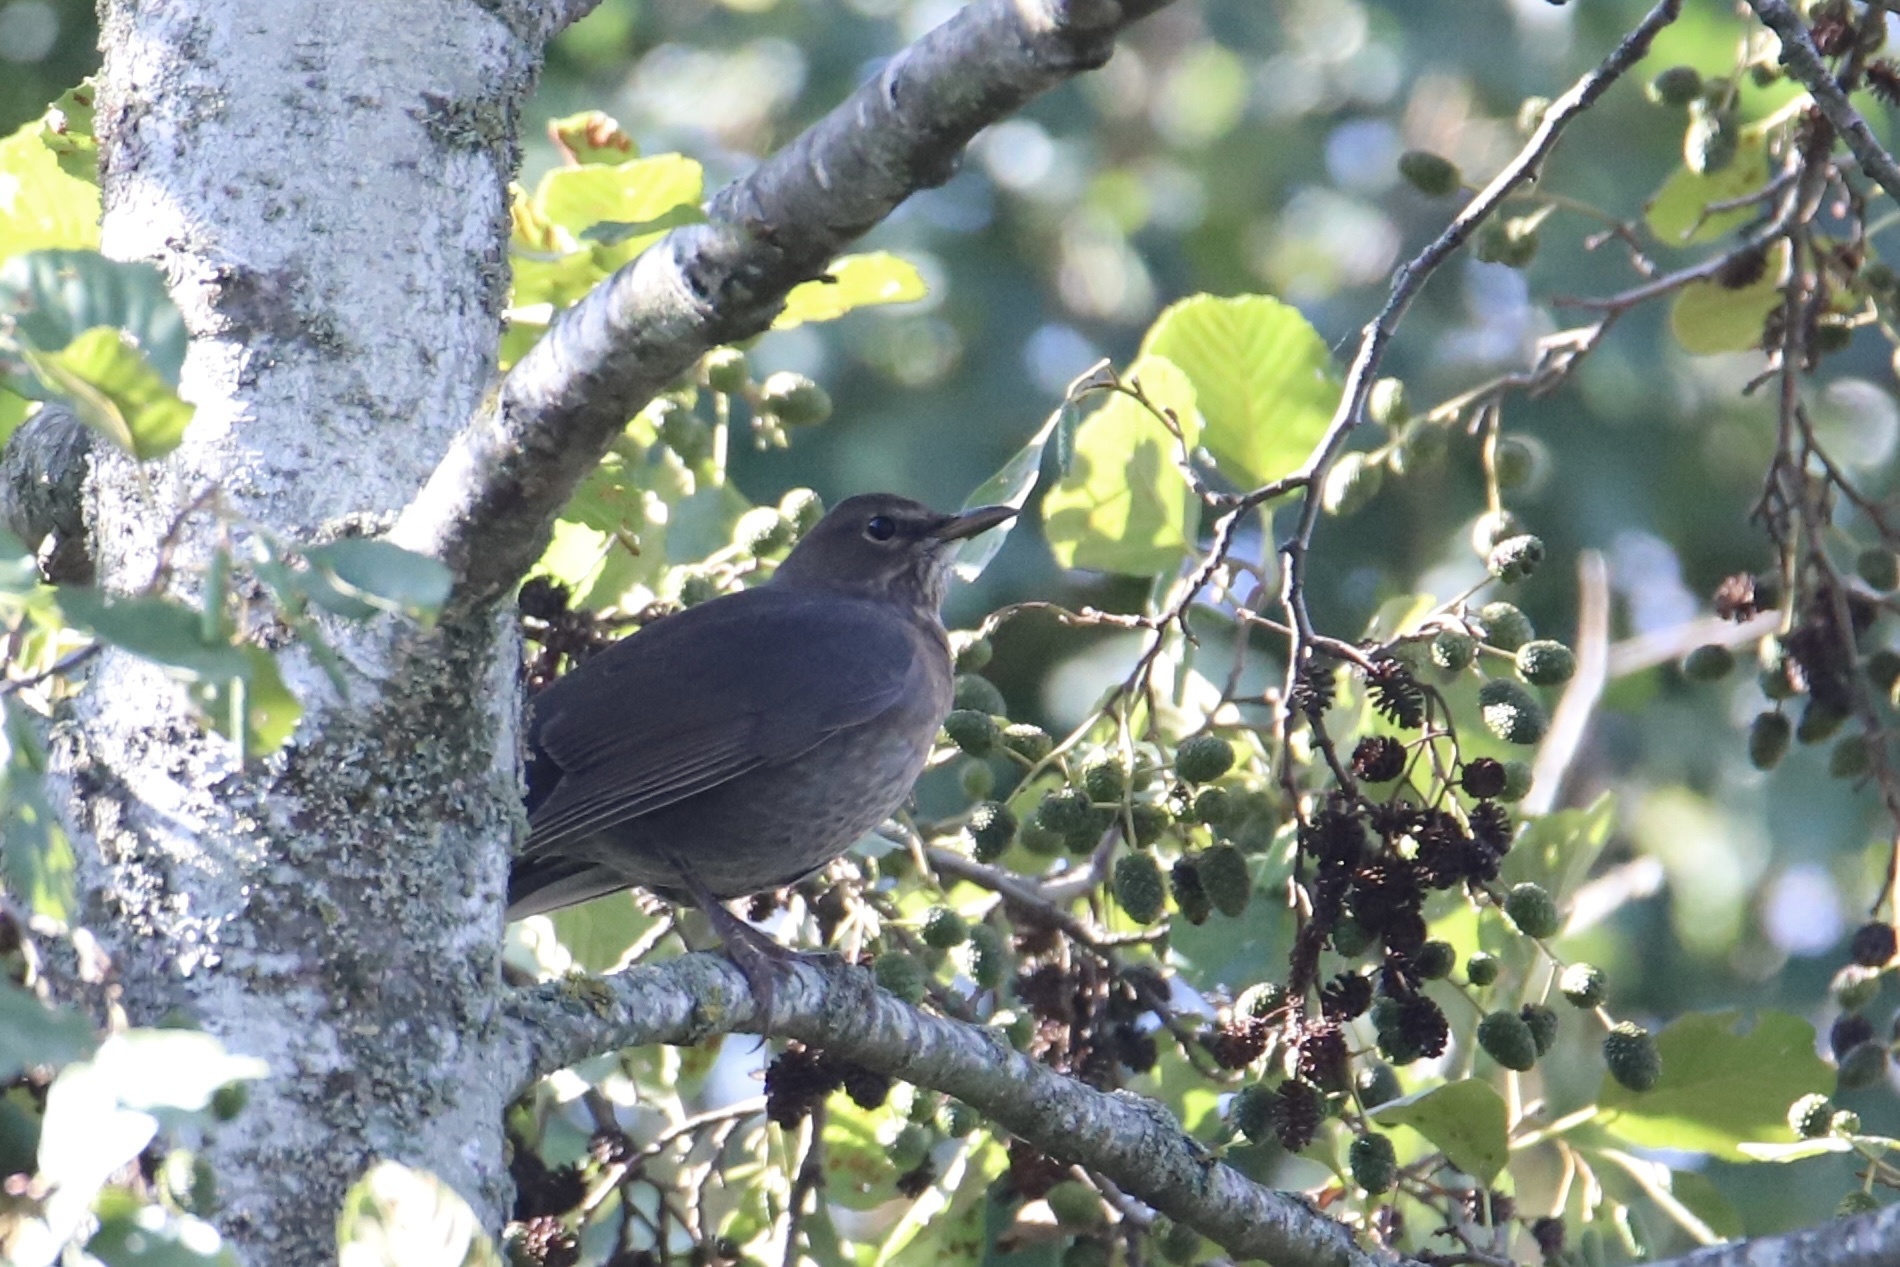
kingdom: Animalia
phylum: Chordata
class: Aves
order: Passeriformes
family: Turdidae
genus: Turdus
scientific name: Turdus merula
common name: Common blackbird
